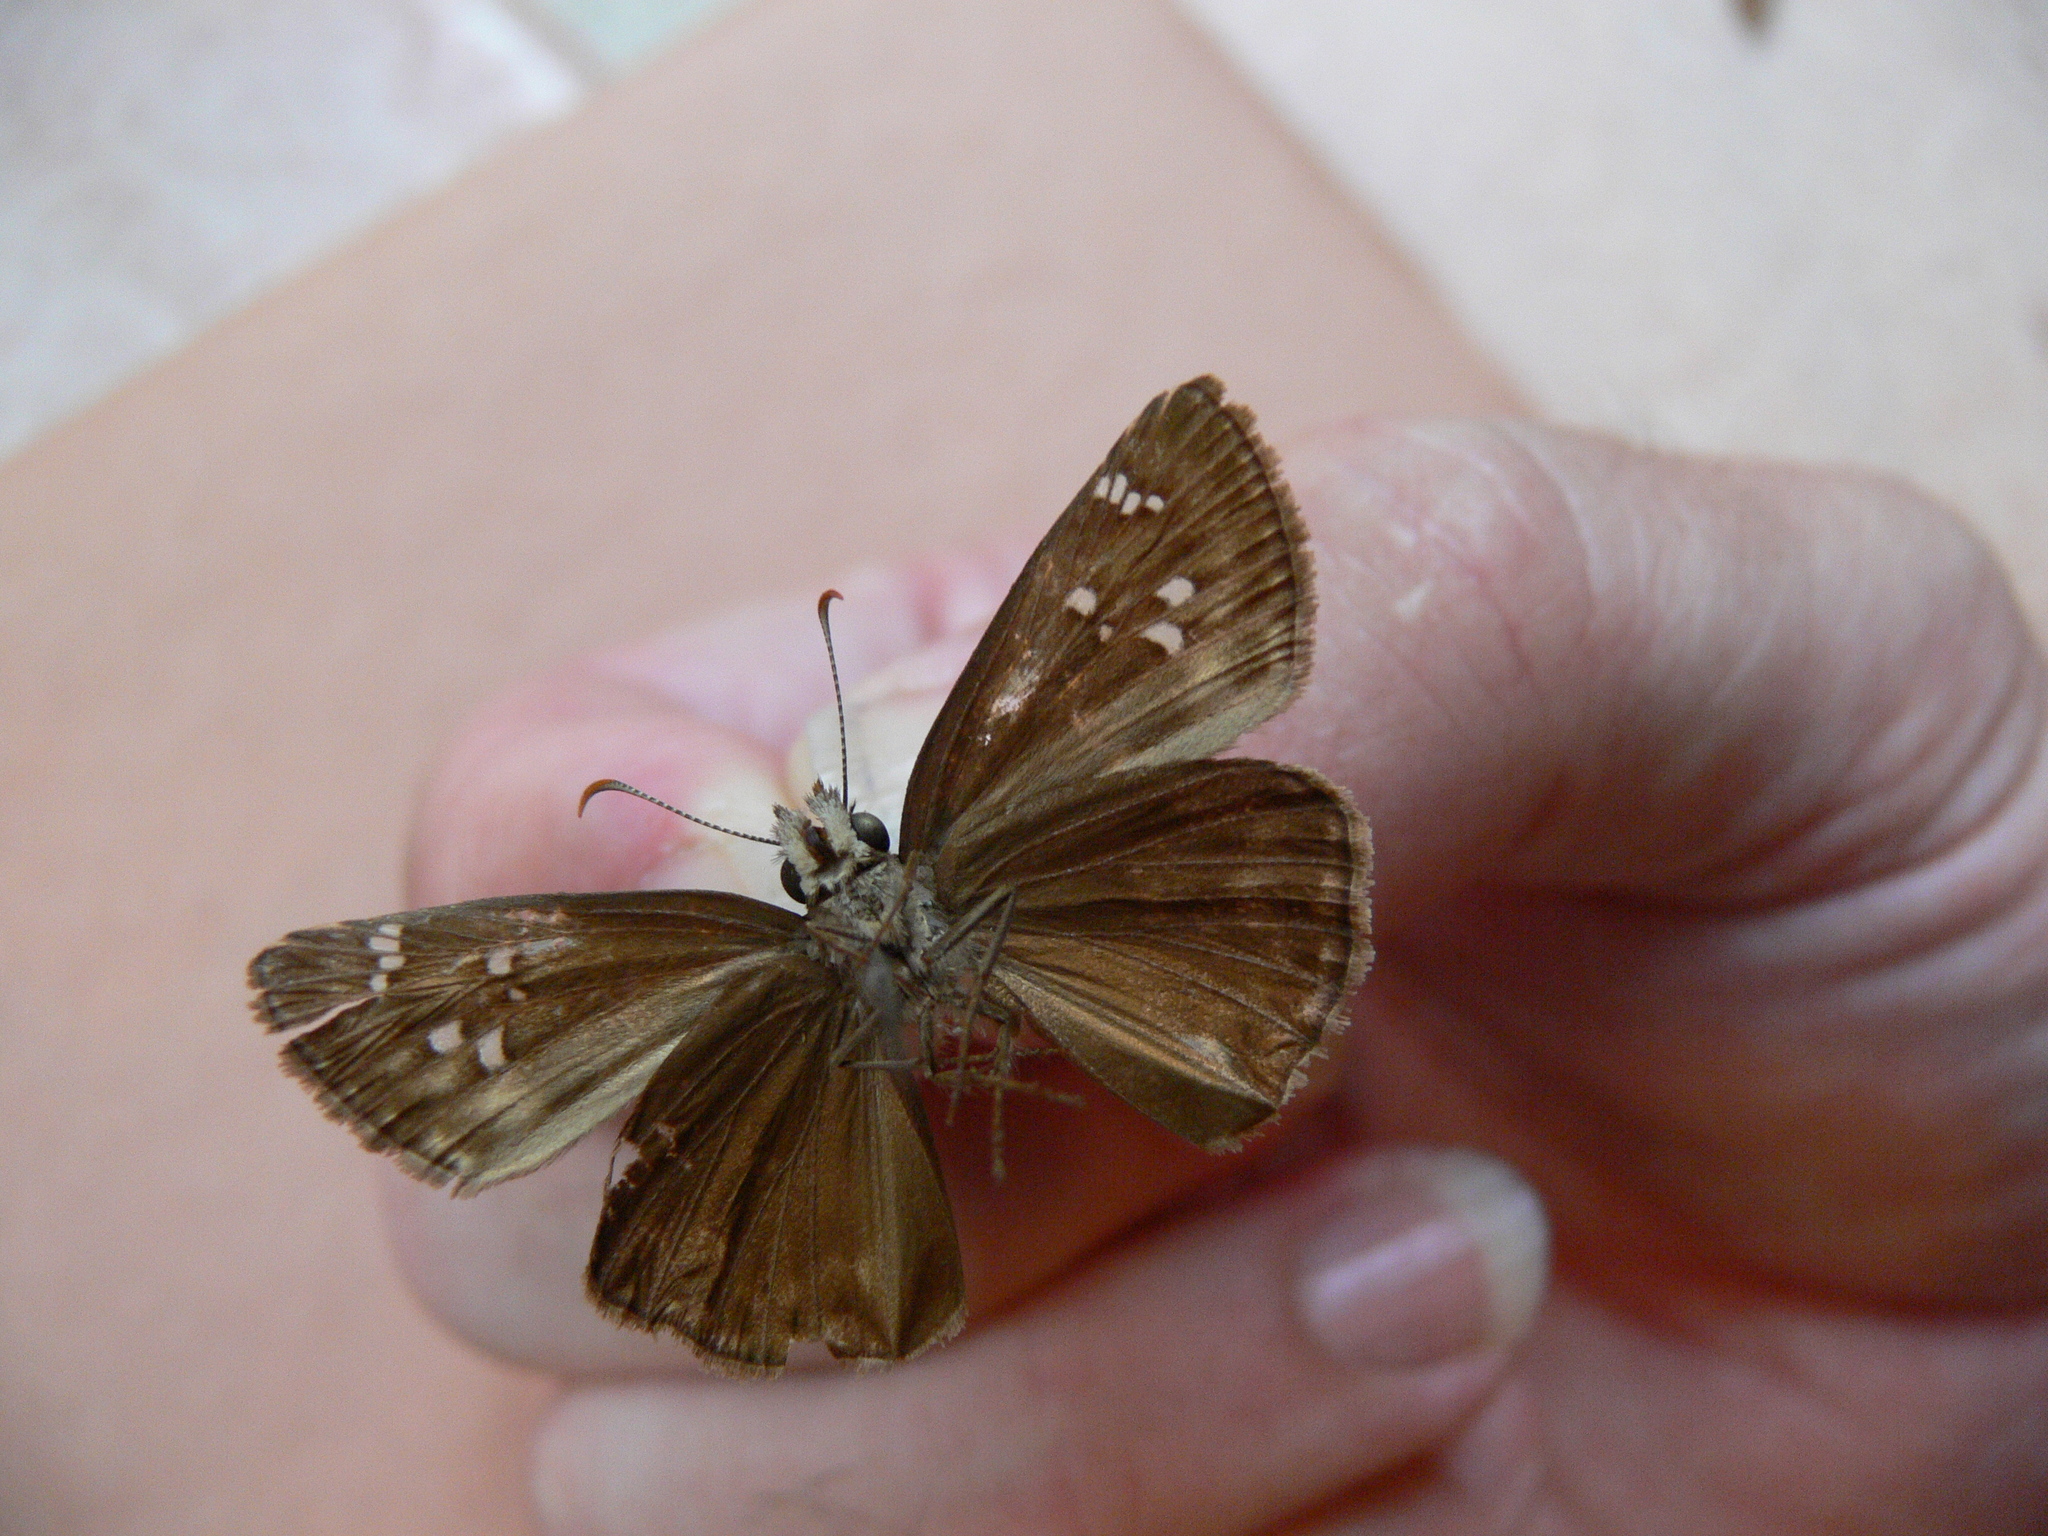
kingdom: Animalia
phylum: Arthropoda
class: Insecta
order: Lepidoptera
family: Hesperiidae
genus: Erynnis
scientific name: Erynnis horatius
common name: Horace's duskywing
